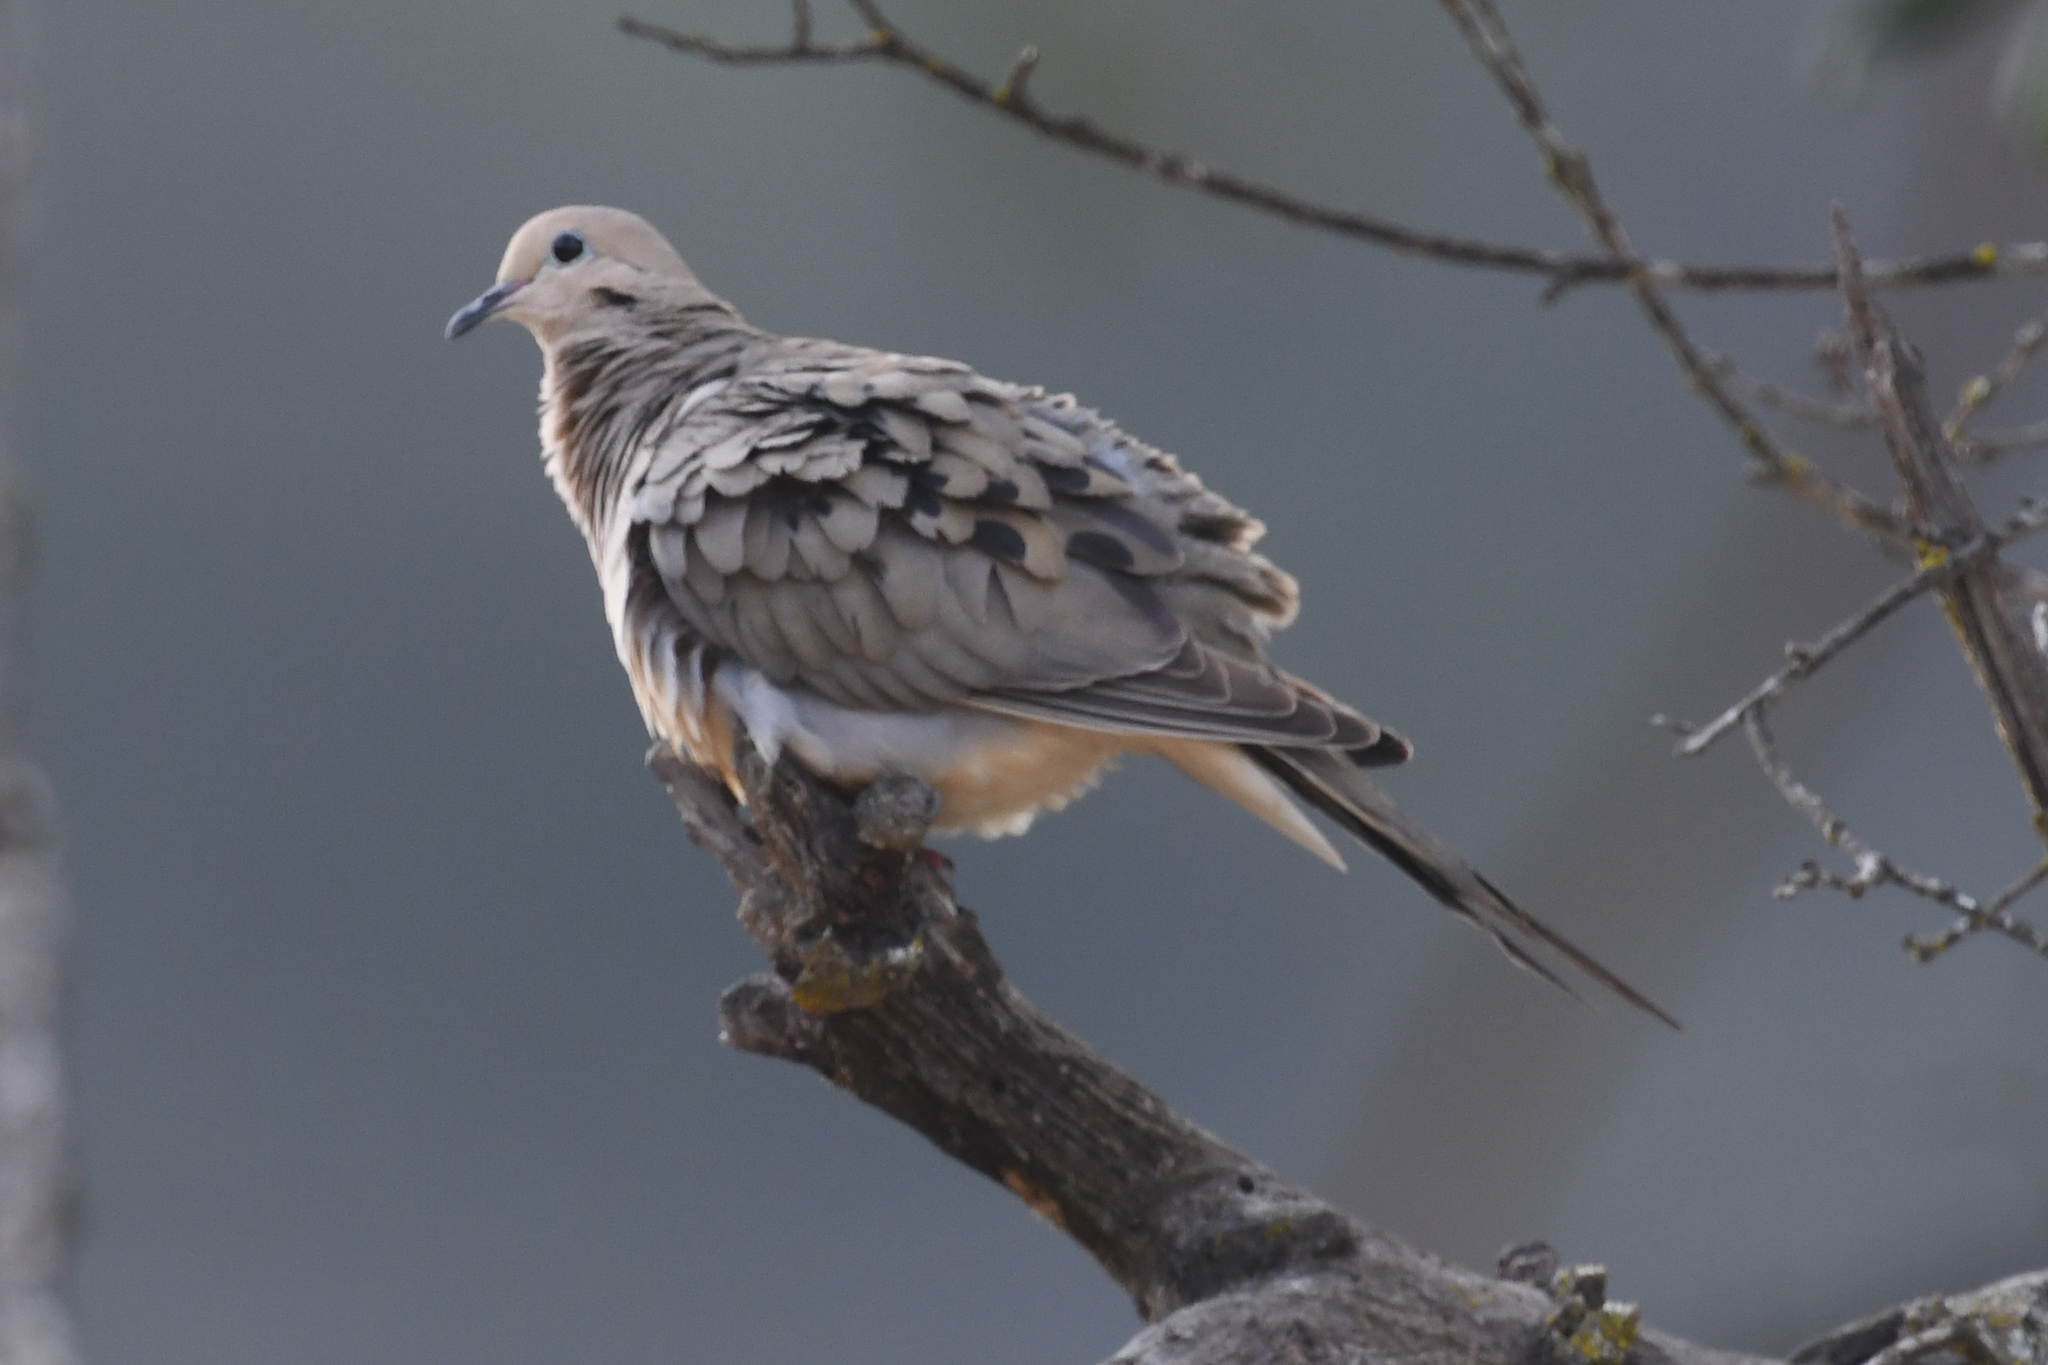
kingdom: Animalia
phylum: Chordata
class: Aves
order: Columbiformes
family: Columbidae
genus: Zenaida
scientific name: Zenaida macroura
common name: Mourning dove
